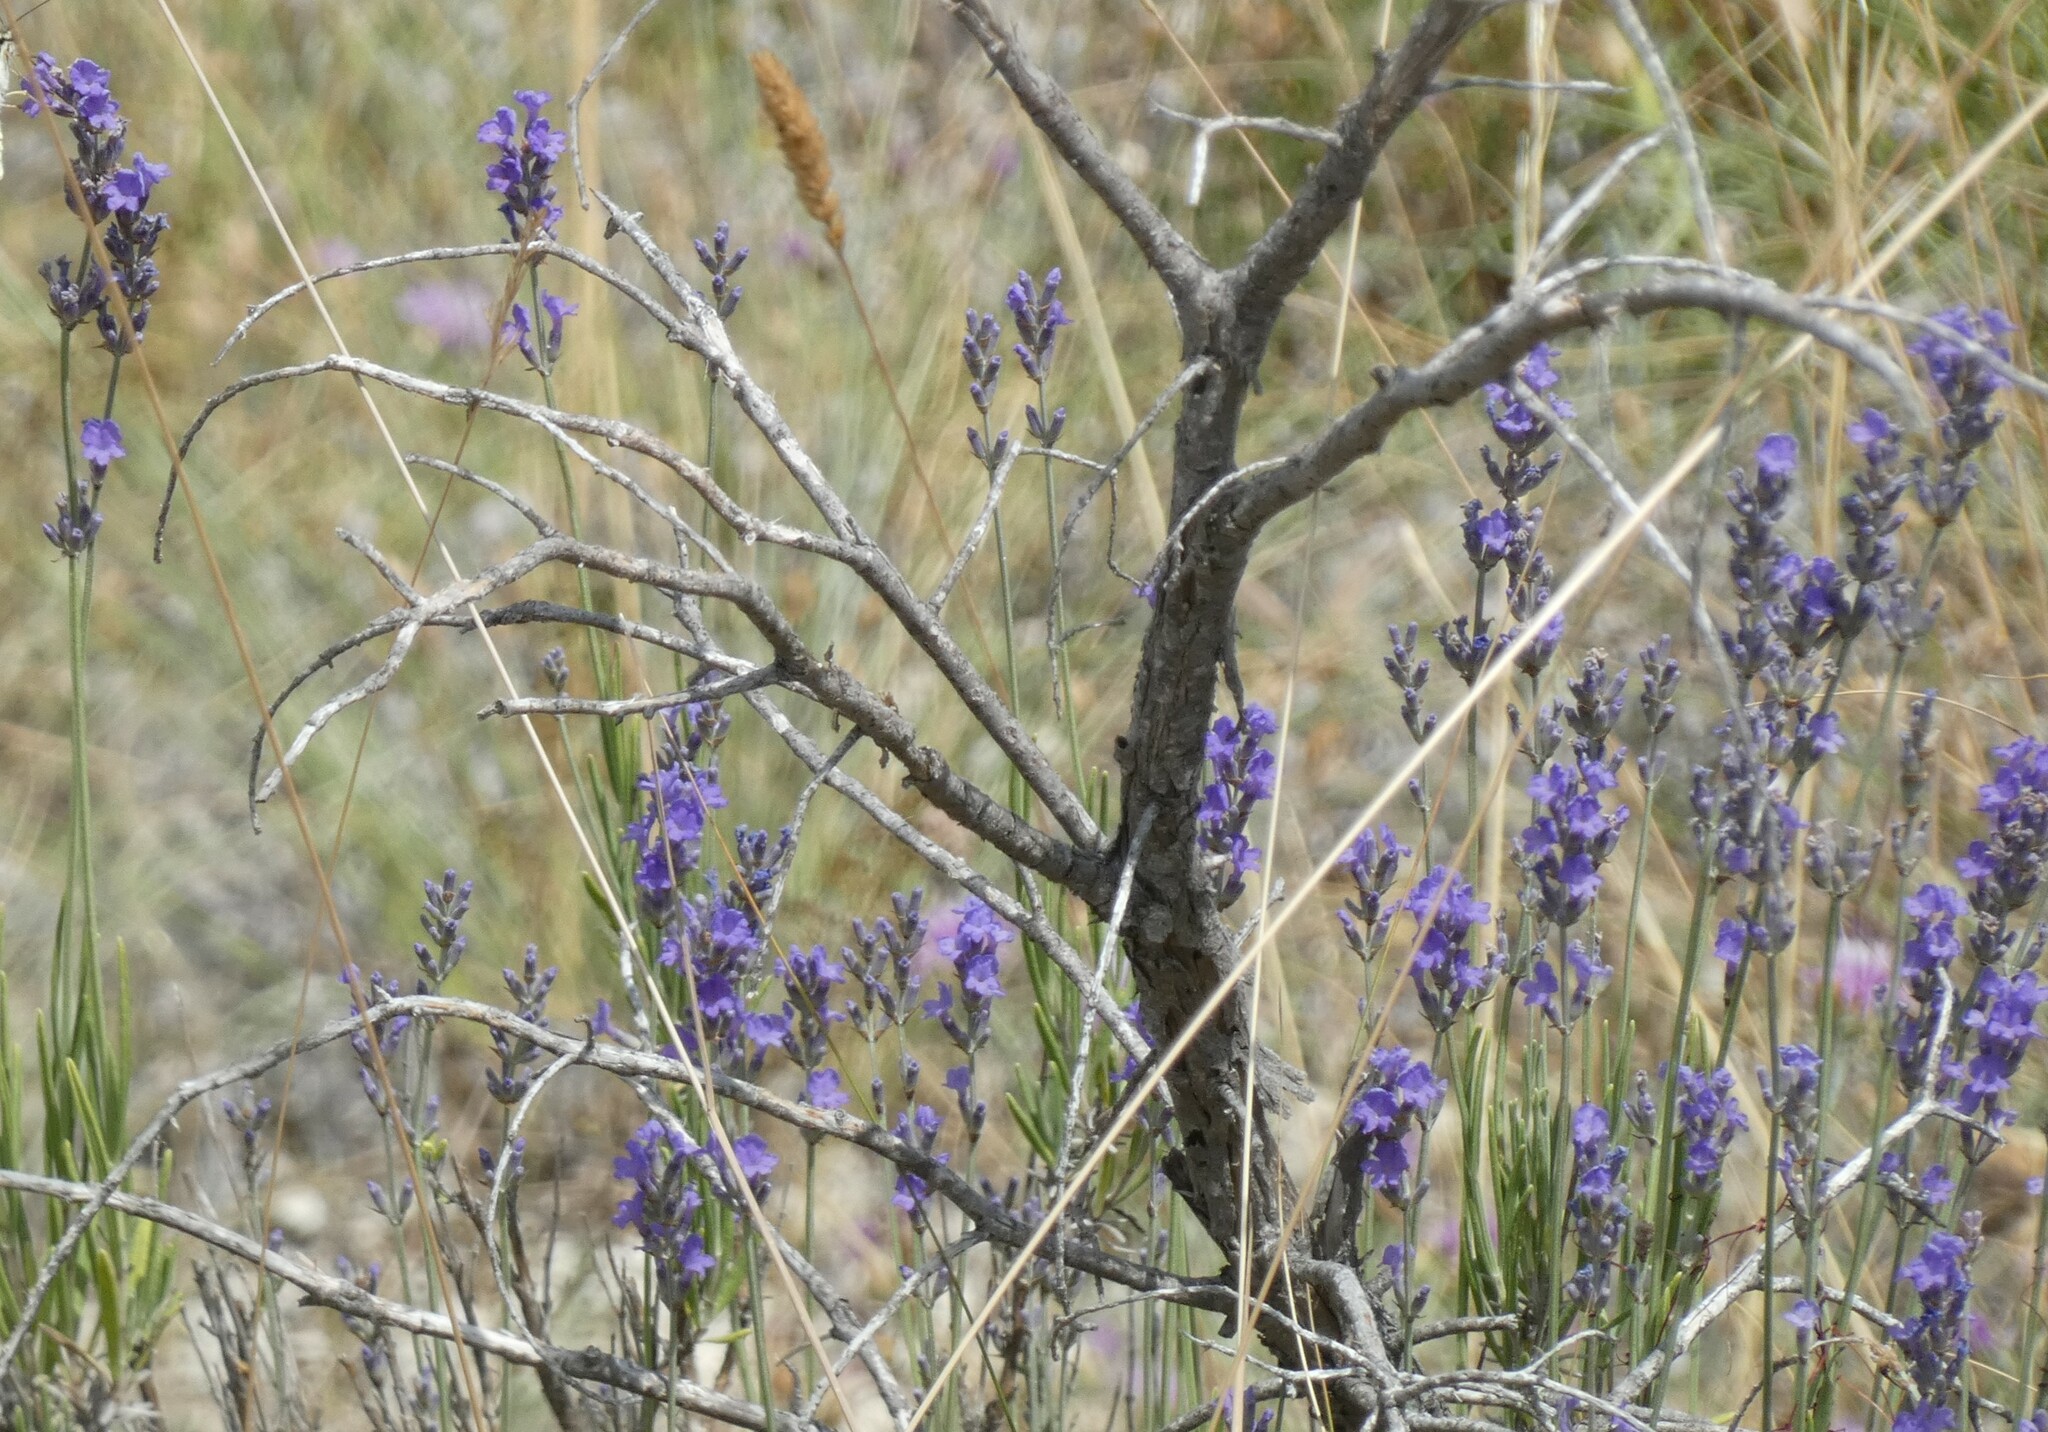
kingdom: Plantae
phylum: Tracheophyta
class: Magnoliopsida
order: Lamiales
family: Lamiaceae
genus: Lavandula
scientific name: Lavandula angustifolia
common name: Garden lavender
